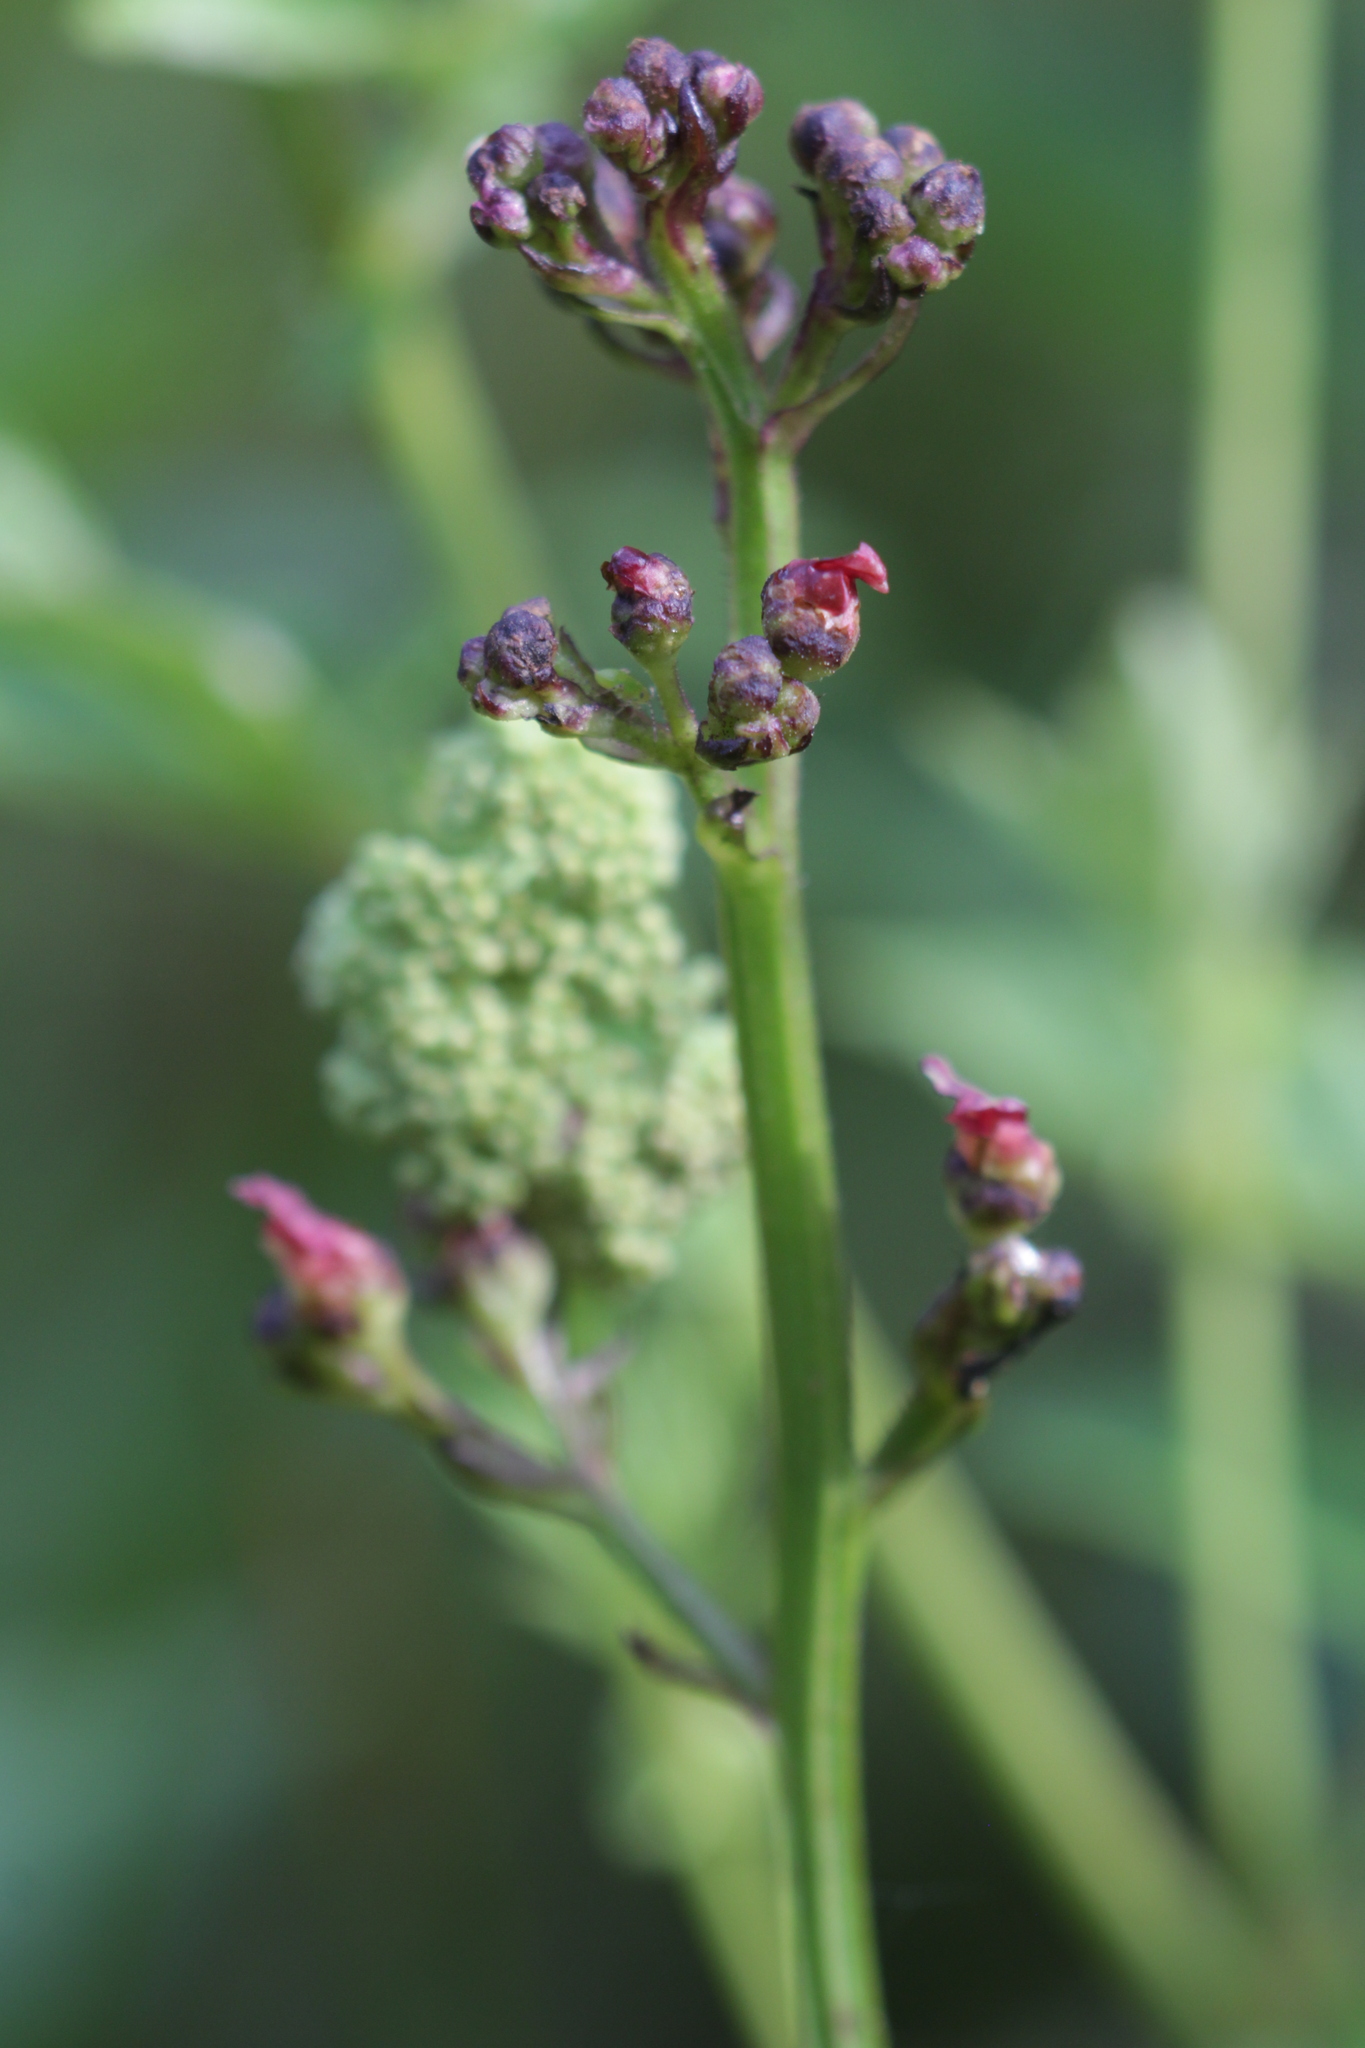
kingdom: Plantae
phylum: Tracheophyta
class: Magnoliopsida
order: Lamiales
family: Scrophulariaceae
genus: Scrophularia
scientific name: Scrophularia nodosa
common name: Common figwort
